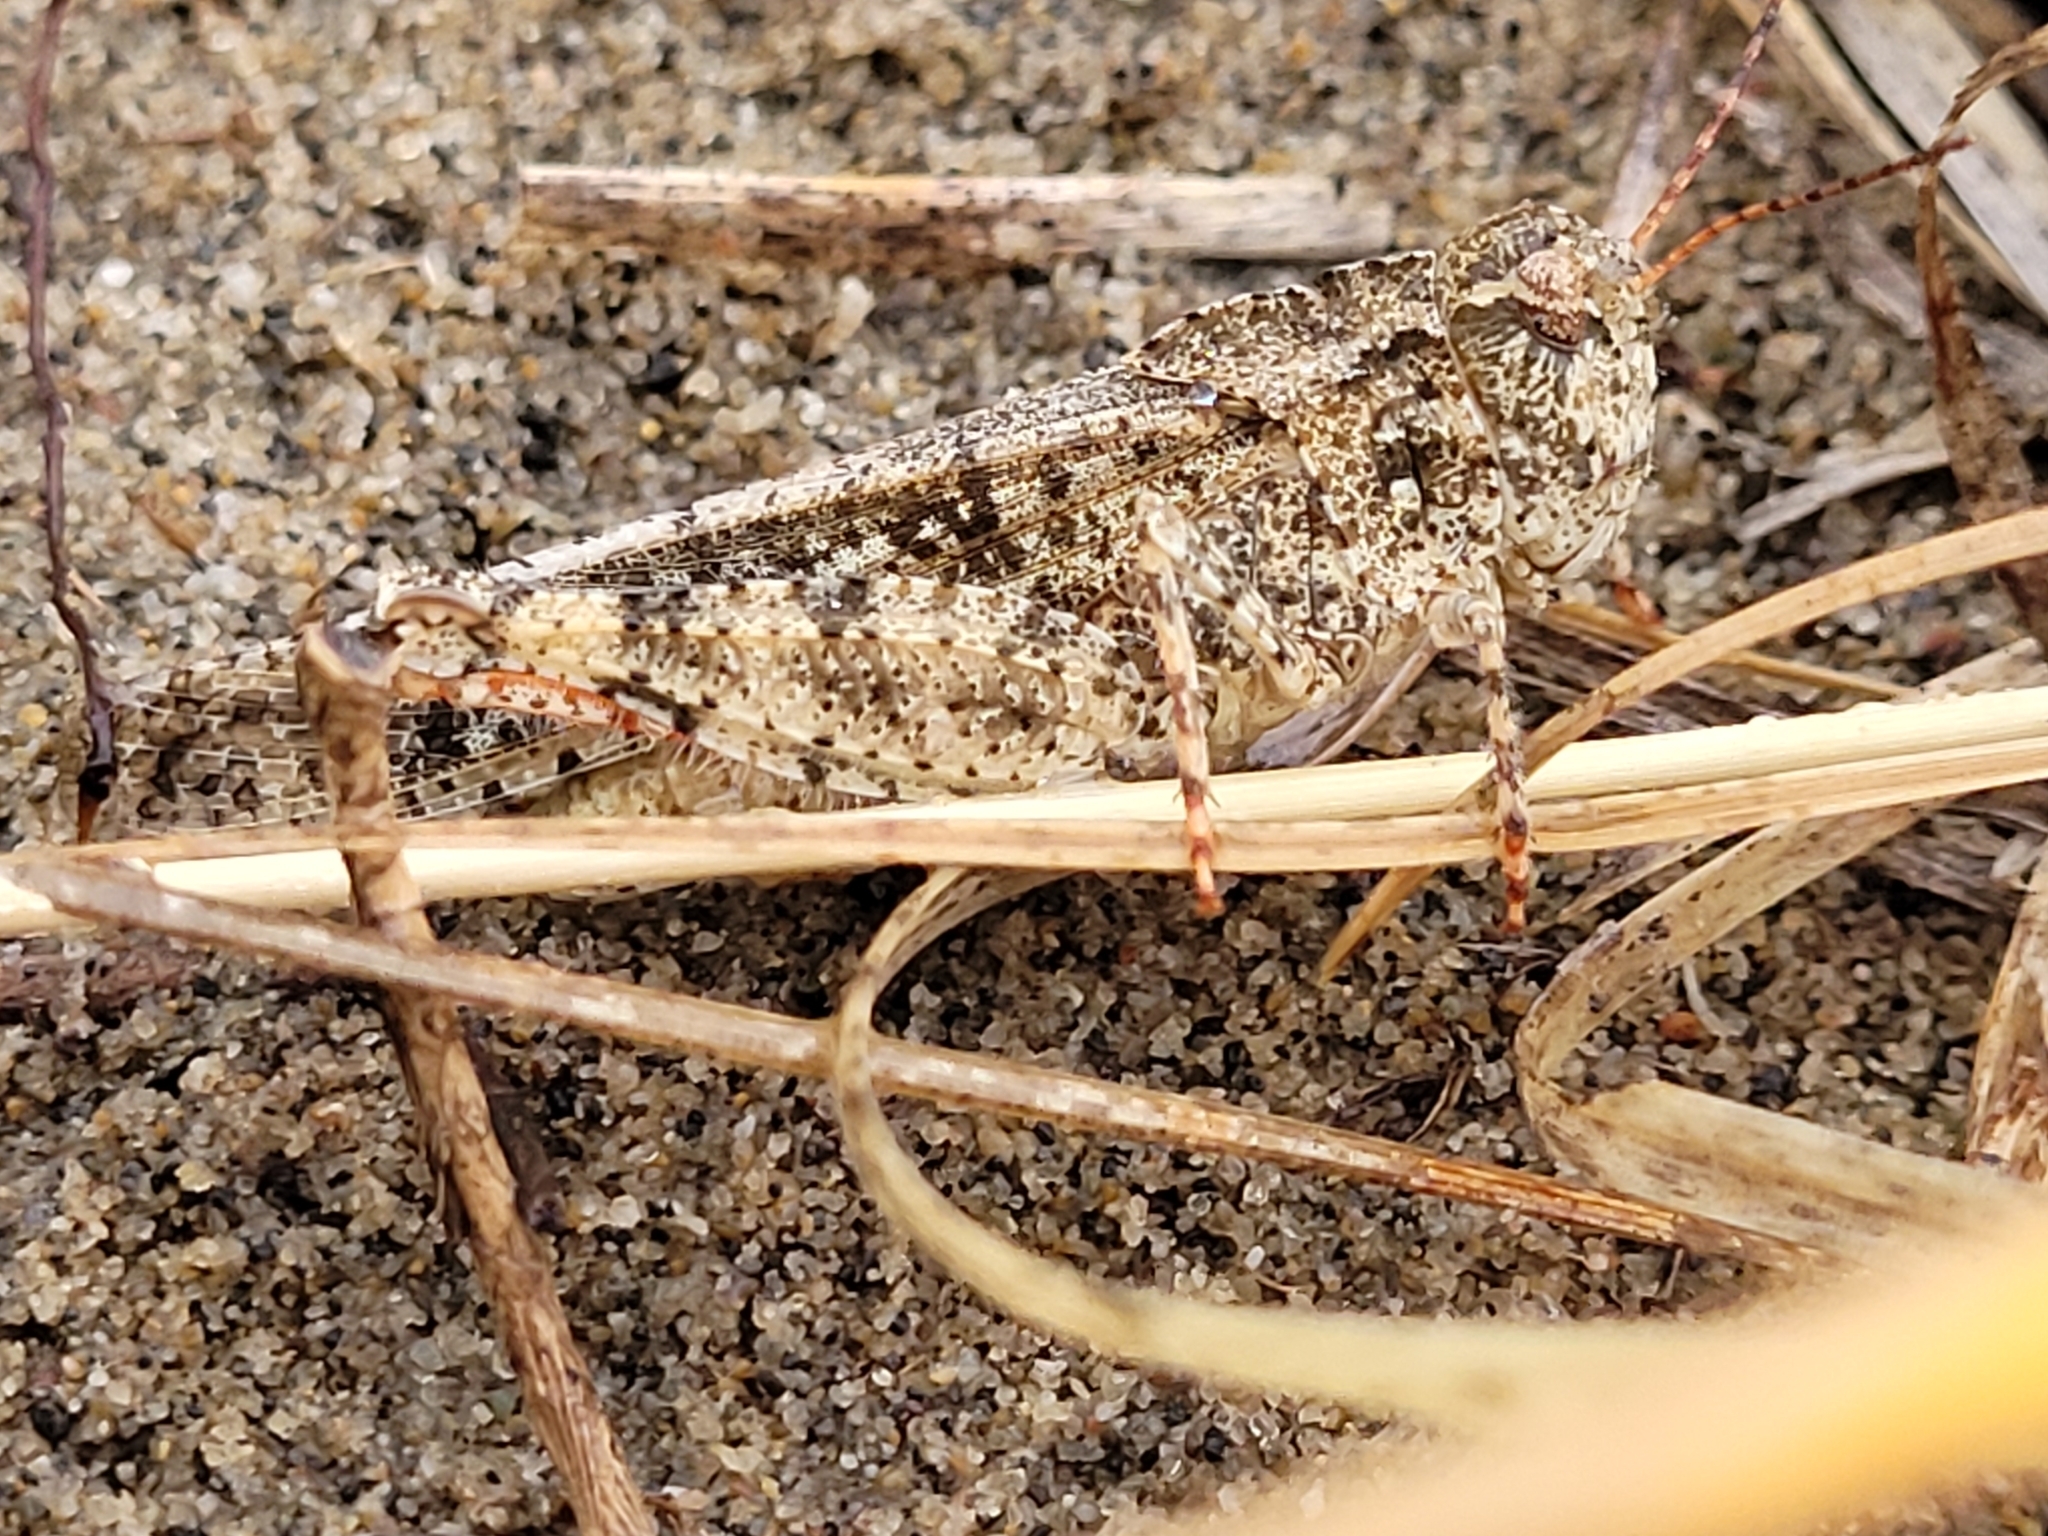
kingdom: Animalia
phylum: Arthropoda
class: Insecta
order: Orthoptera
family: Acrididae
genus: Spharagemon
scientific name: Spharagemon collare
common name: Mottled sand grasshopper
